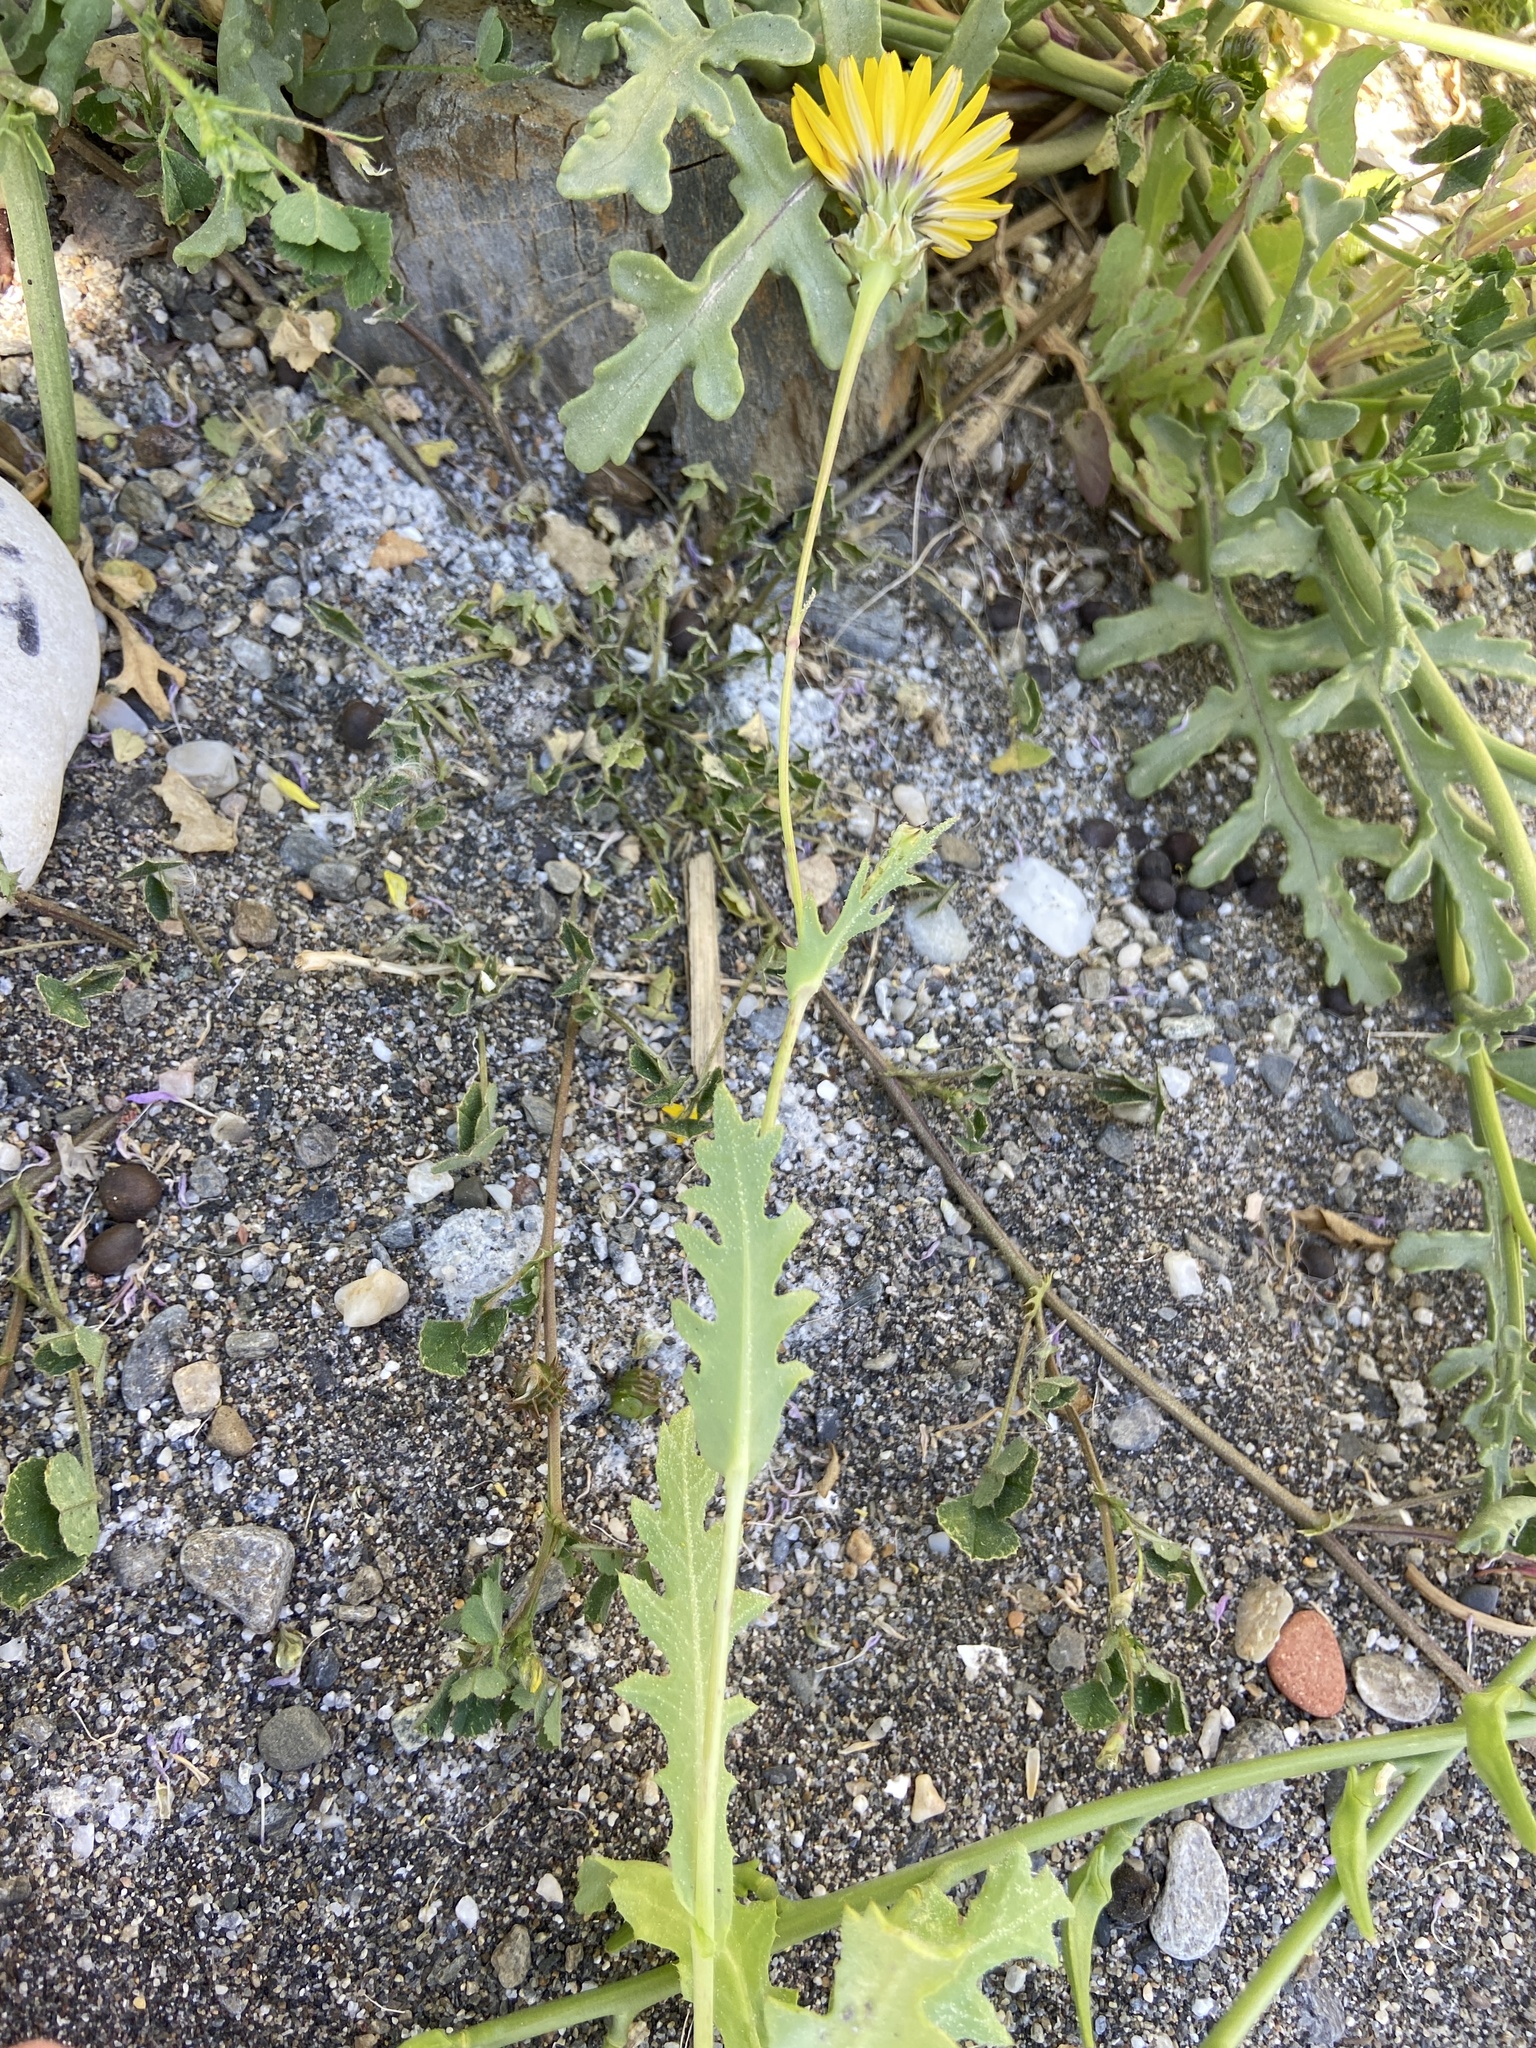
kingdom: Plantae
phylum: Tracheophyta
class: Magnoliopsida
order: Asterales
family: Asteraceae
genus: Reichardia
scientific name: Reichardia tingitana
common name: Reichardia
